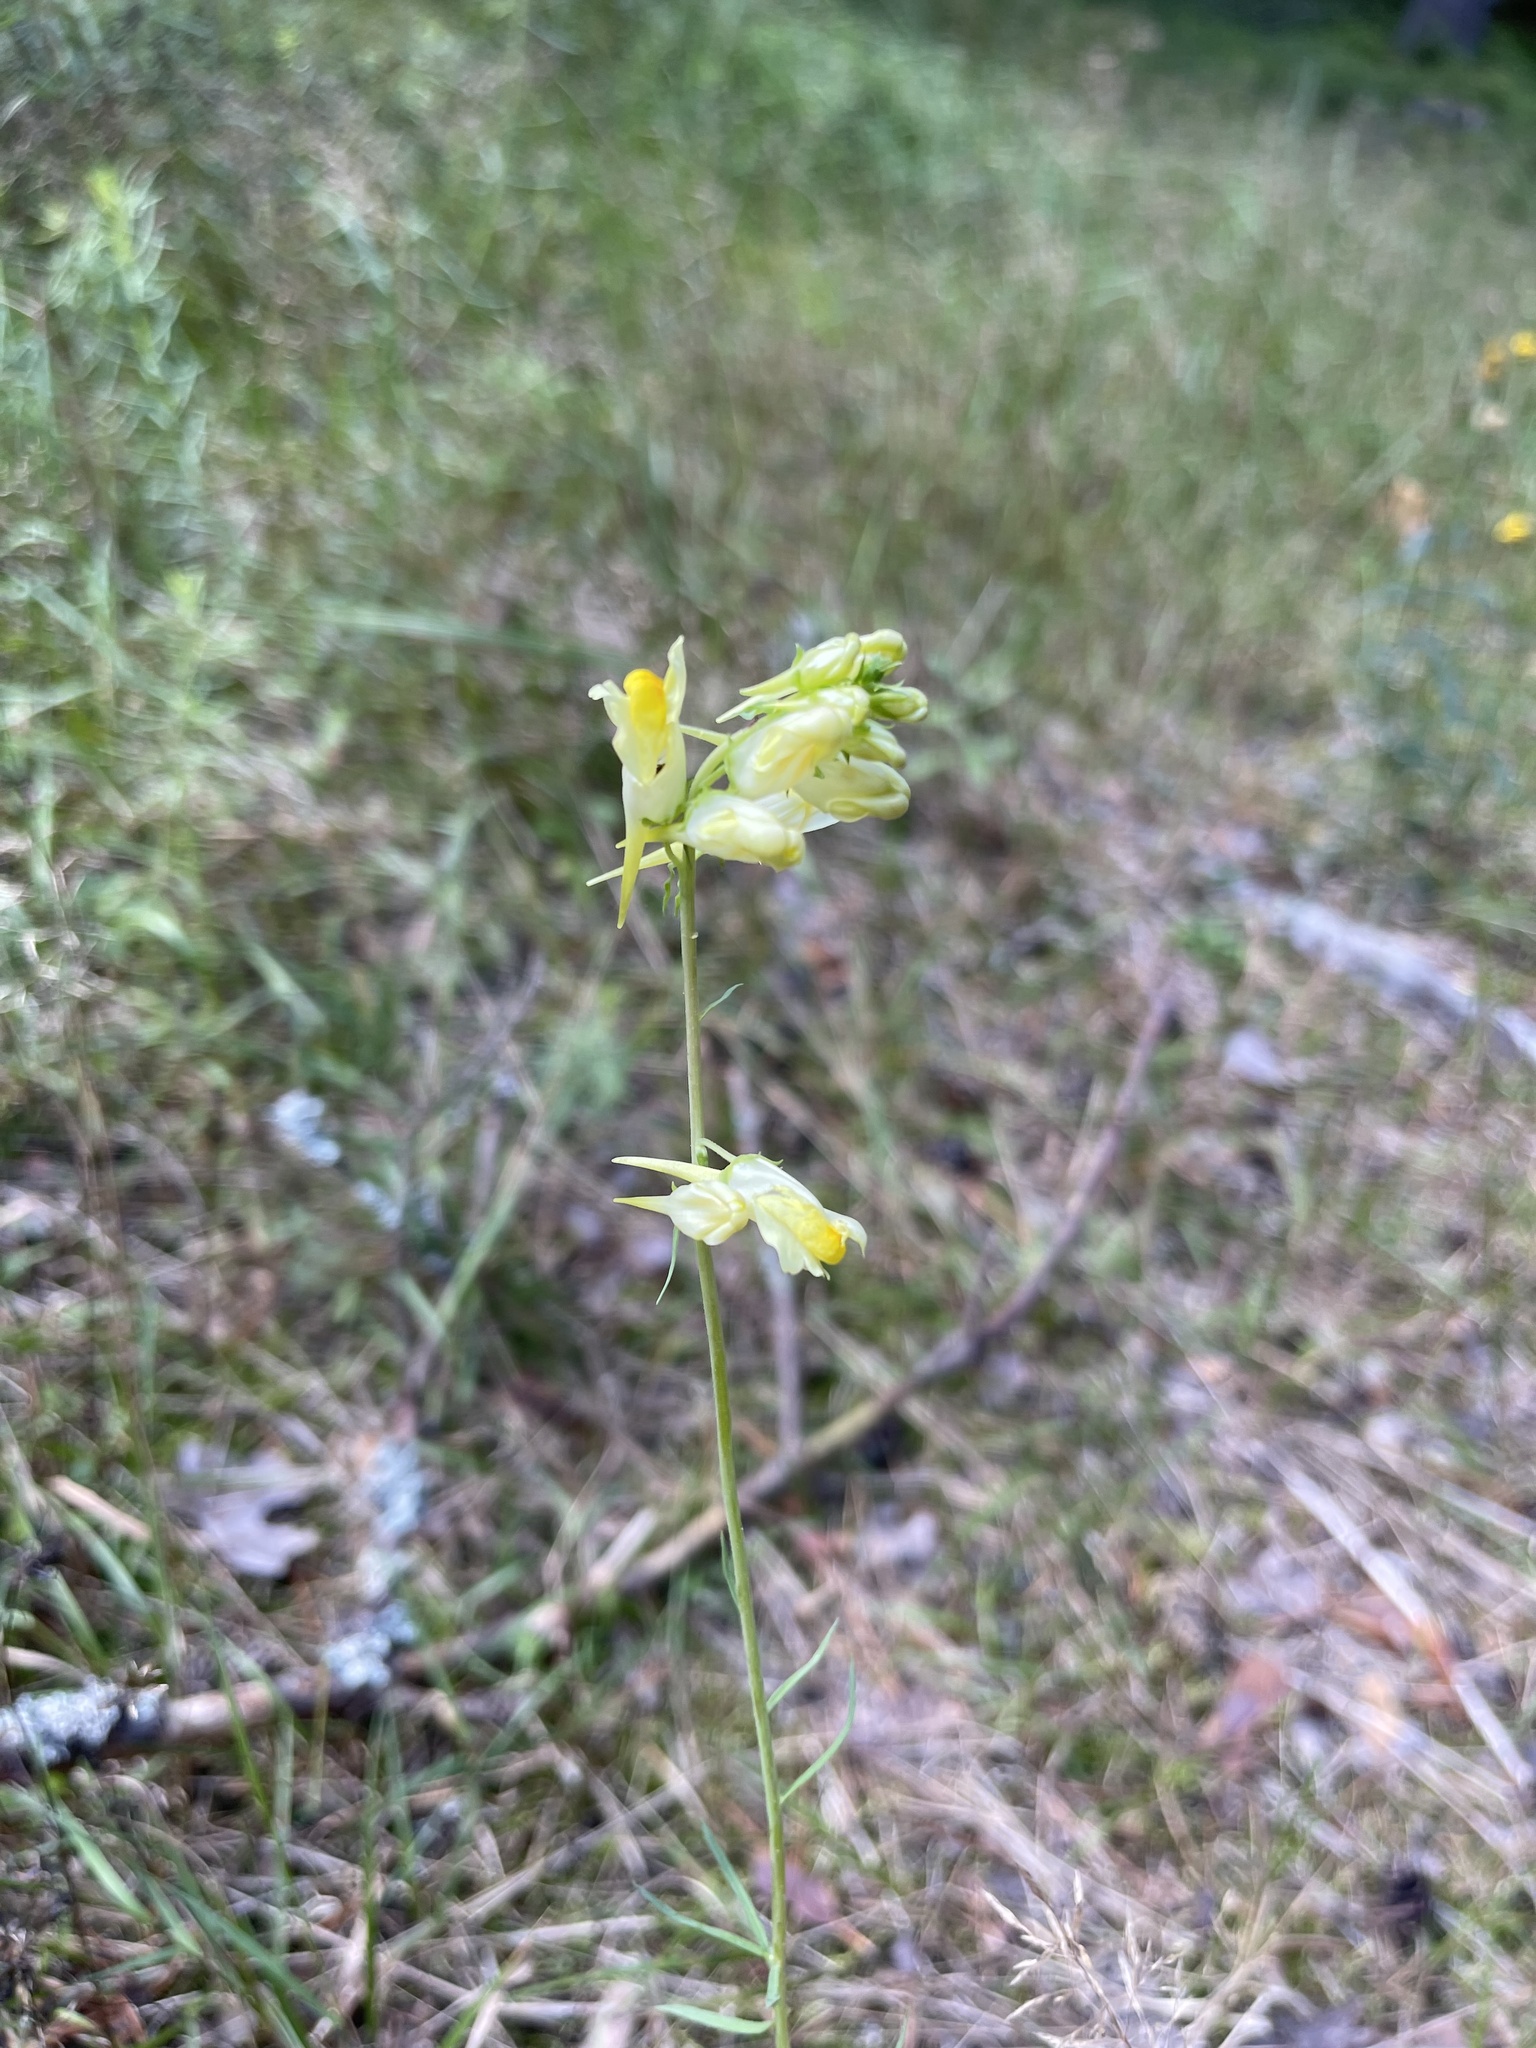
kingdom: Plantae
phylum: Tracheophyta
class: Magnoliopsida
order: Lamiales
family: Plantaginaceae
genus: Linaria
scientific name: Linaria vulgaris
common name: Butter and eggs
